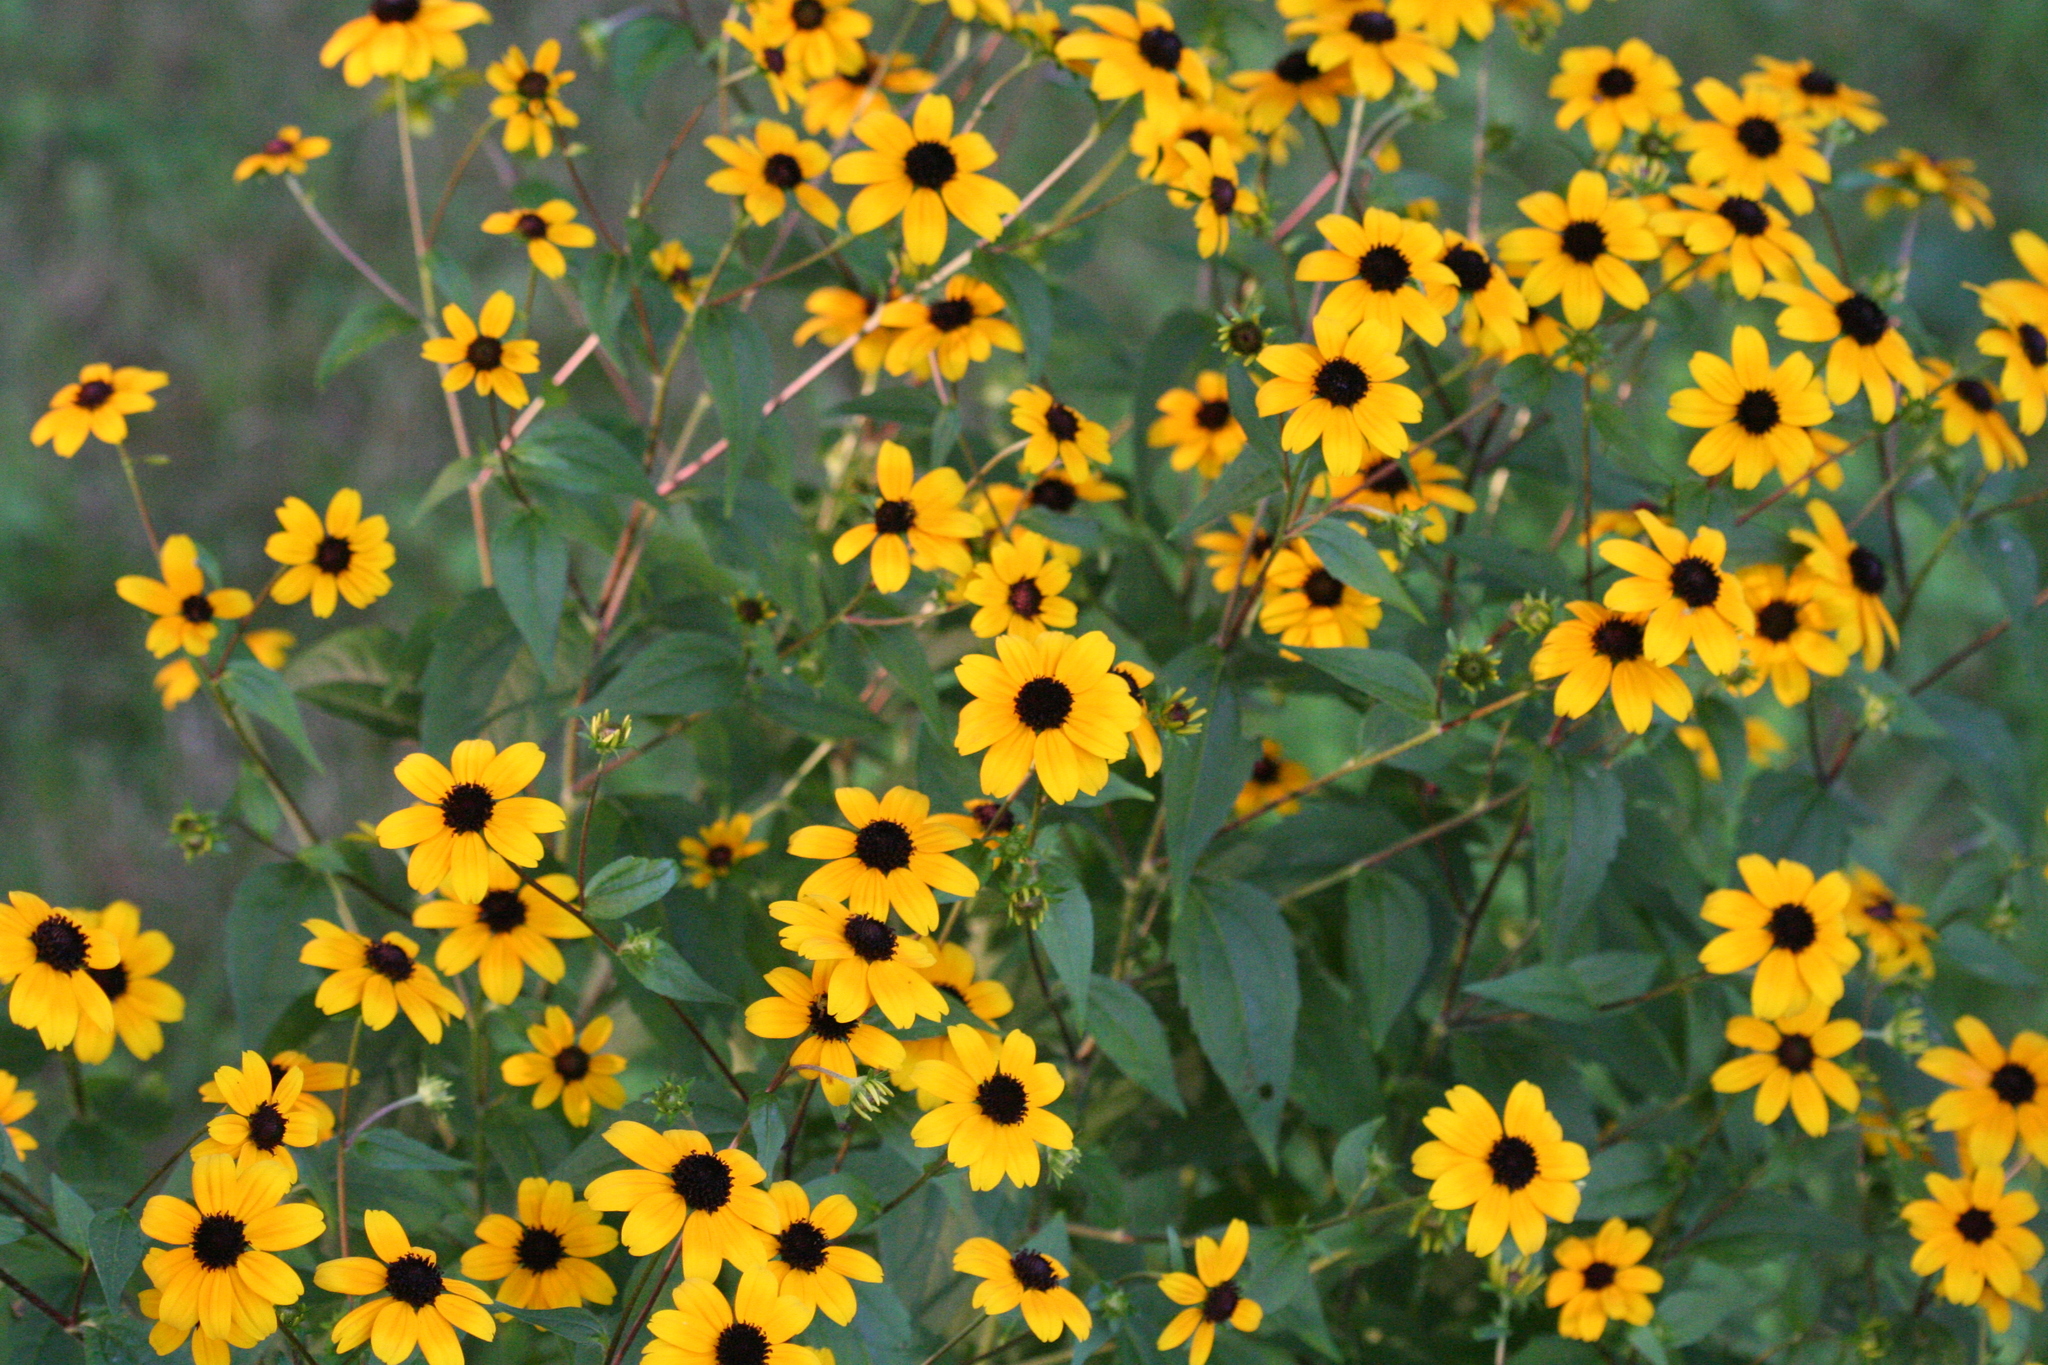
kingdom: Plantae
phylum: Tracheophyta
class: Magnoliopsida
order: Asterales
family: Asteraceae
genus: Rudbeckia
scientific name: Rudbeckia triloba
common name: Thin-leaved coneflower
